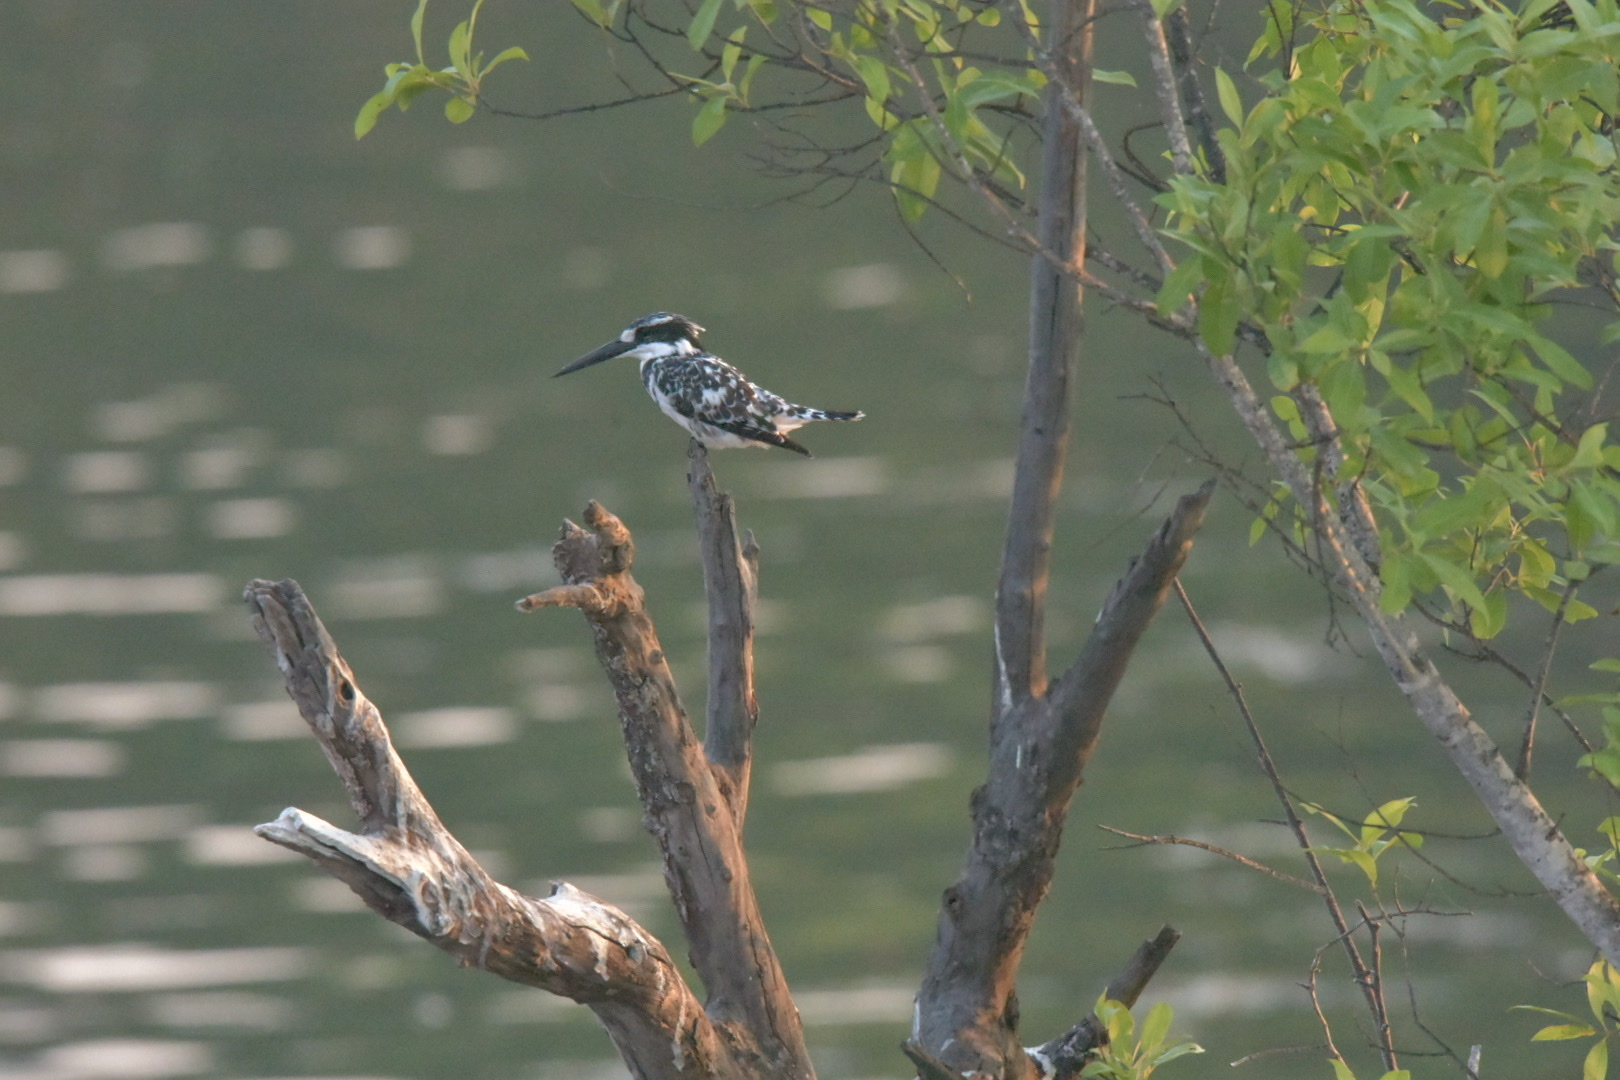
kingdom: Animalia
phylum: Chordata
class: Aves
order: Coraciiformes
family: Alcedinidae
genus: Ceryle
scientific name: Ceryle rudis
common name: Pied kingfisher
